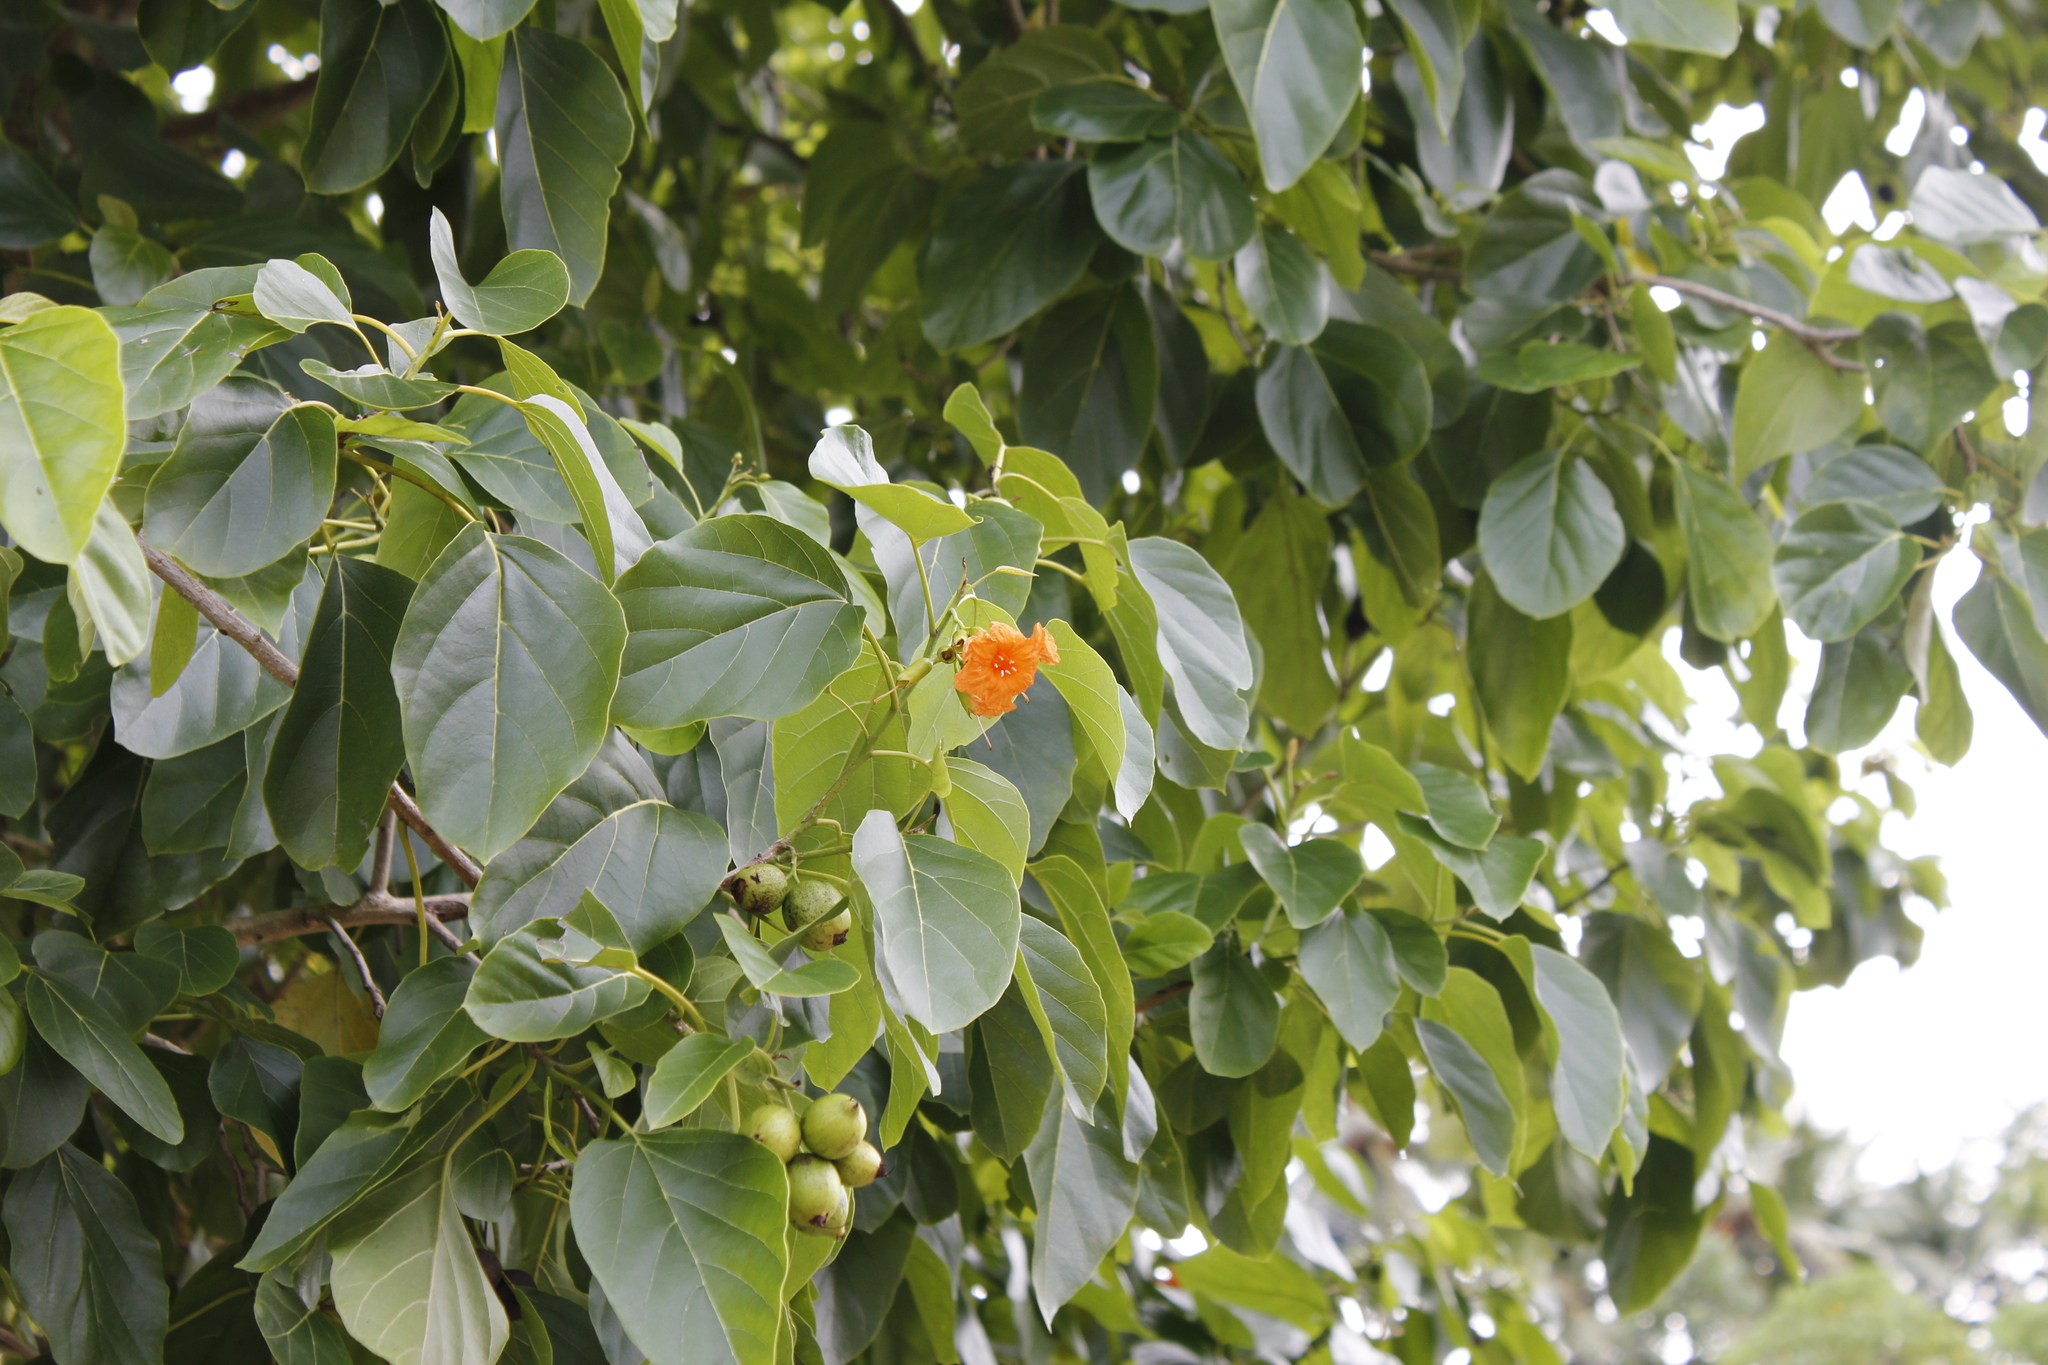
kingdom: Plantae
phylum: Tracheophyta
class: Magnoliopsida
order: Boraginales
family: Cordiaceae
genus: Cordia
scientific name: Cordia subcordata
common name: Mareer
